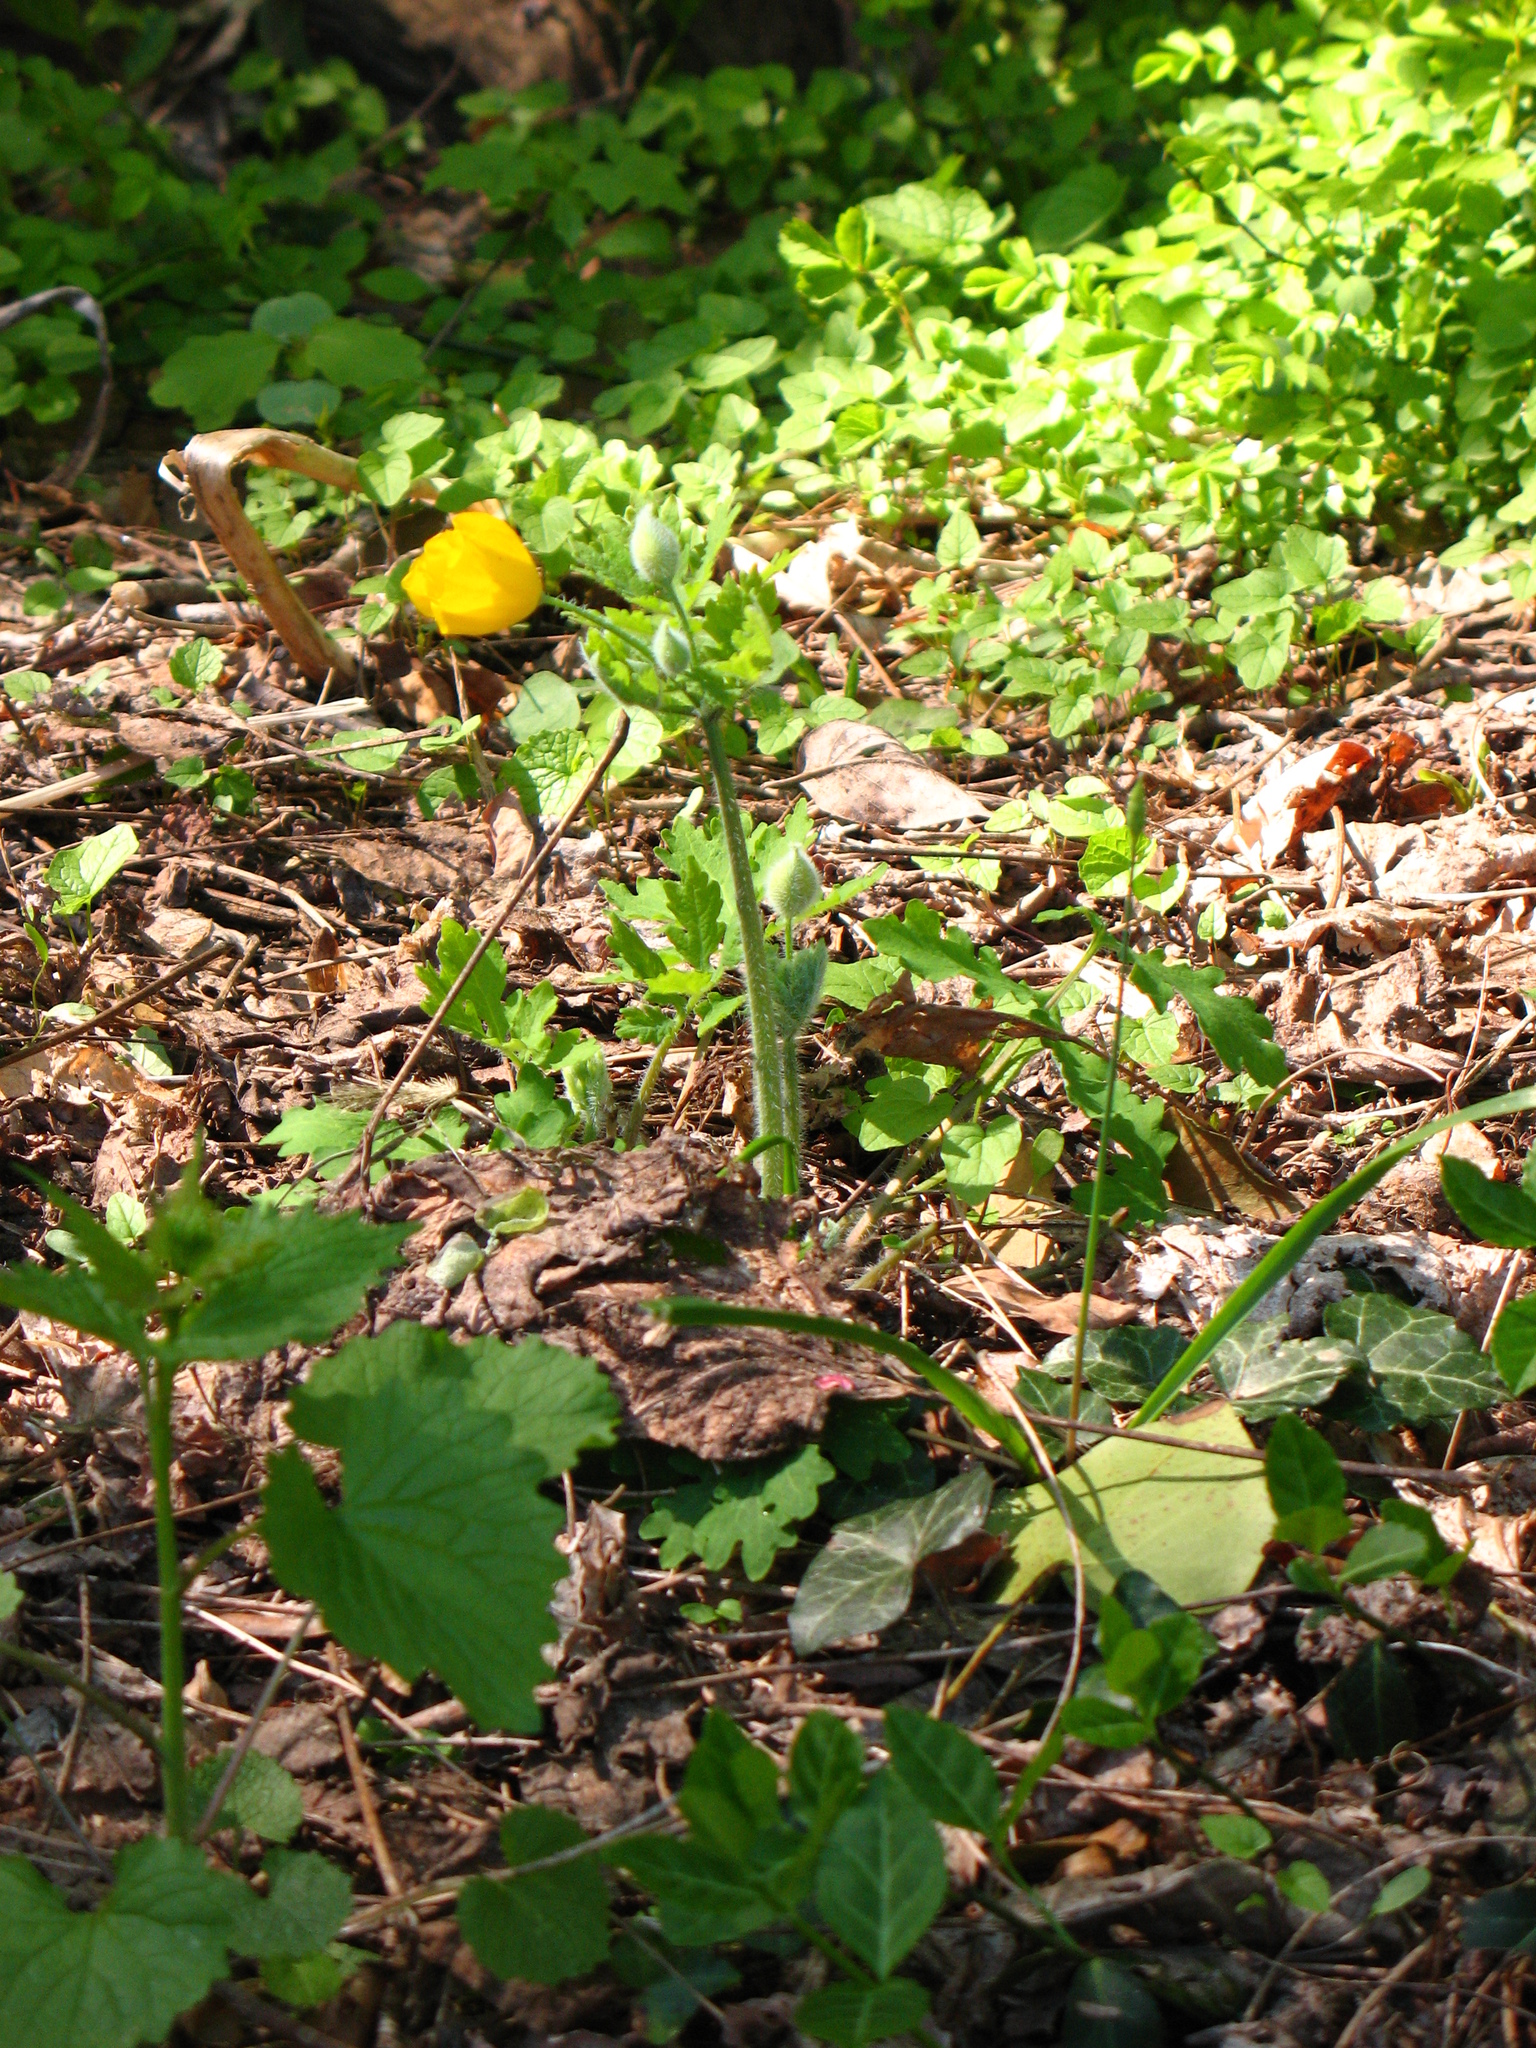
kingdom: Plantae
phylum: Tracheophyta
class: Magnoliopsida
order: Ranunculales
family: Papaveraceae
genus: Stylophorum
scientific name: Stylophorum diphyllum
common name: Celandine poppy
